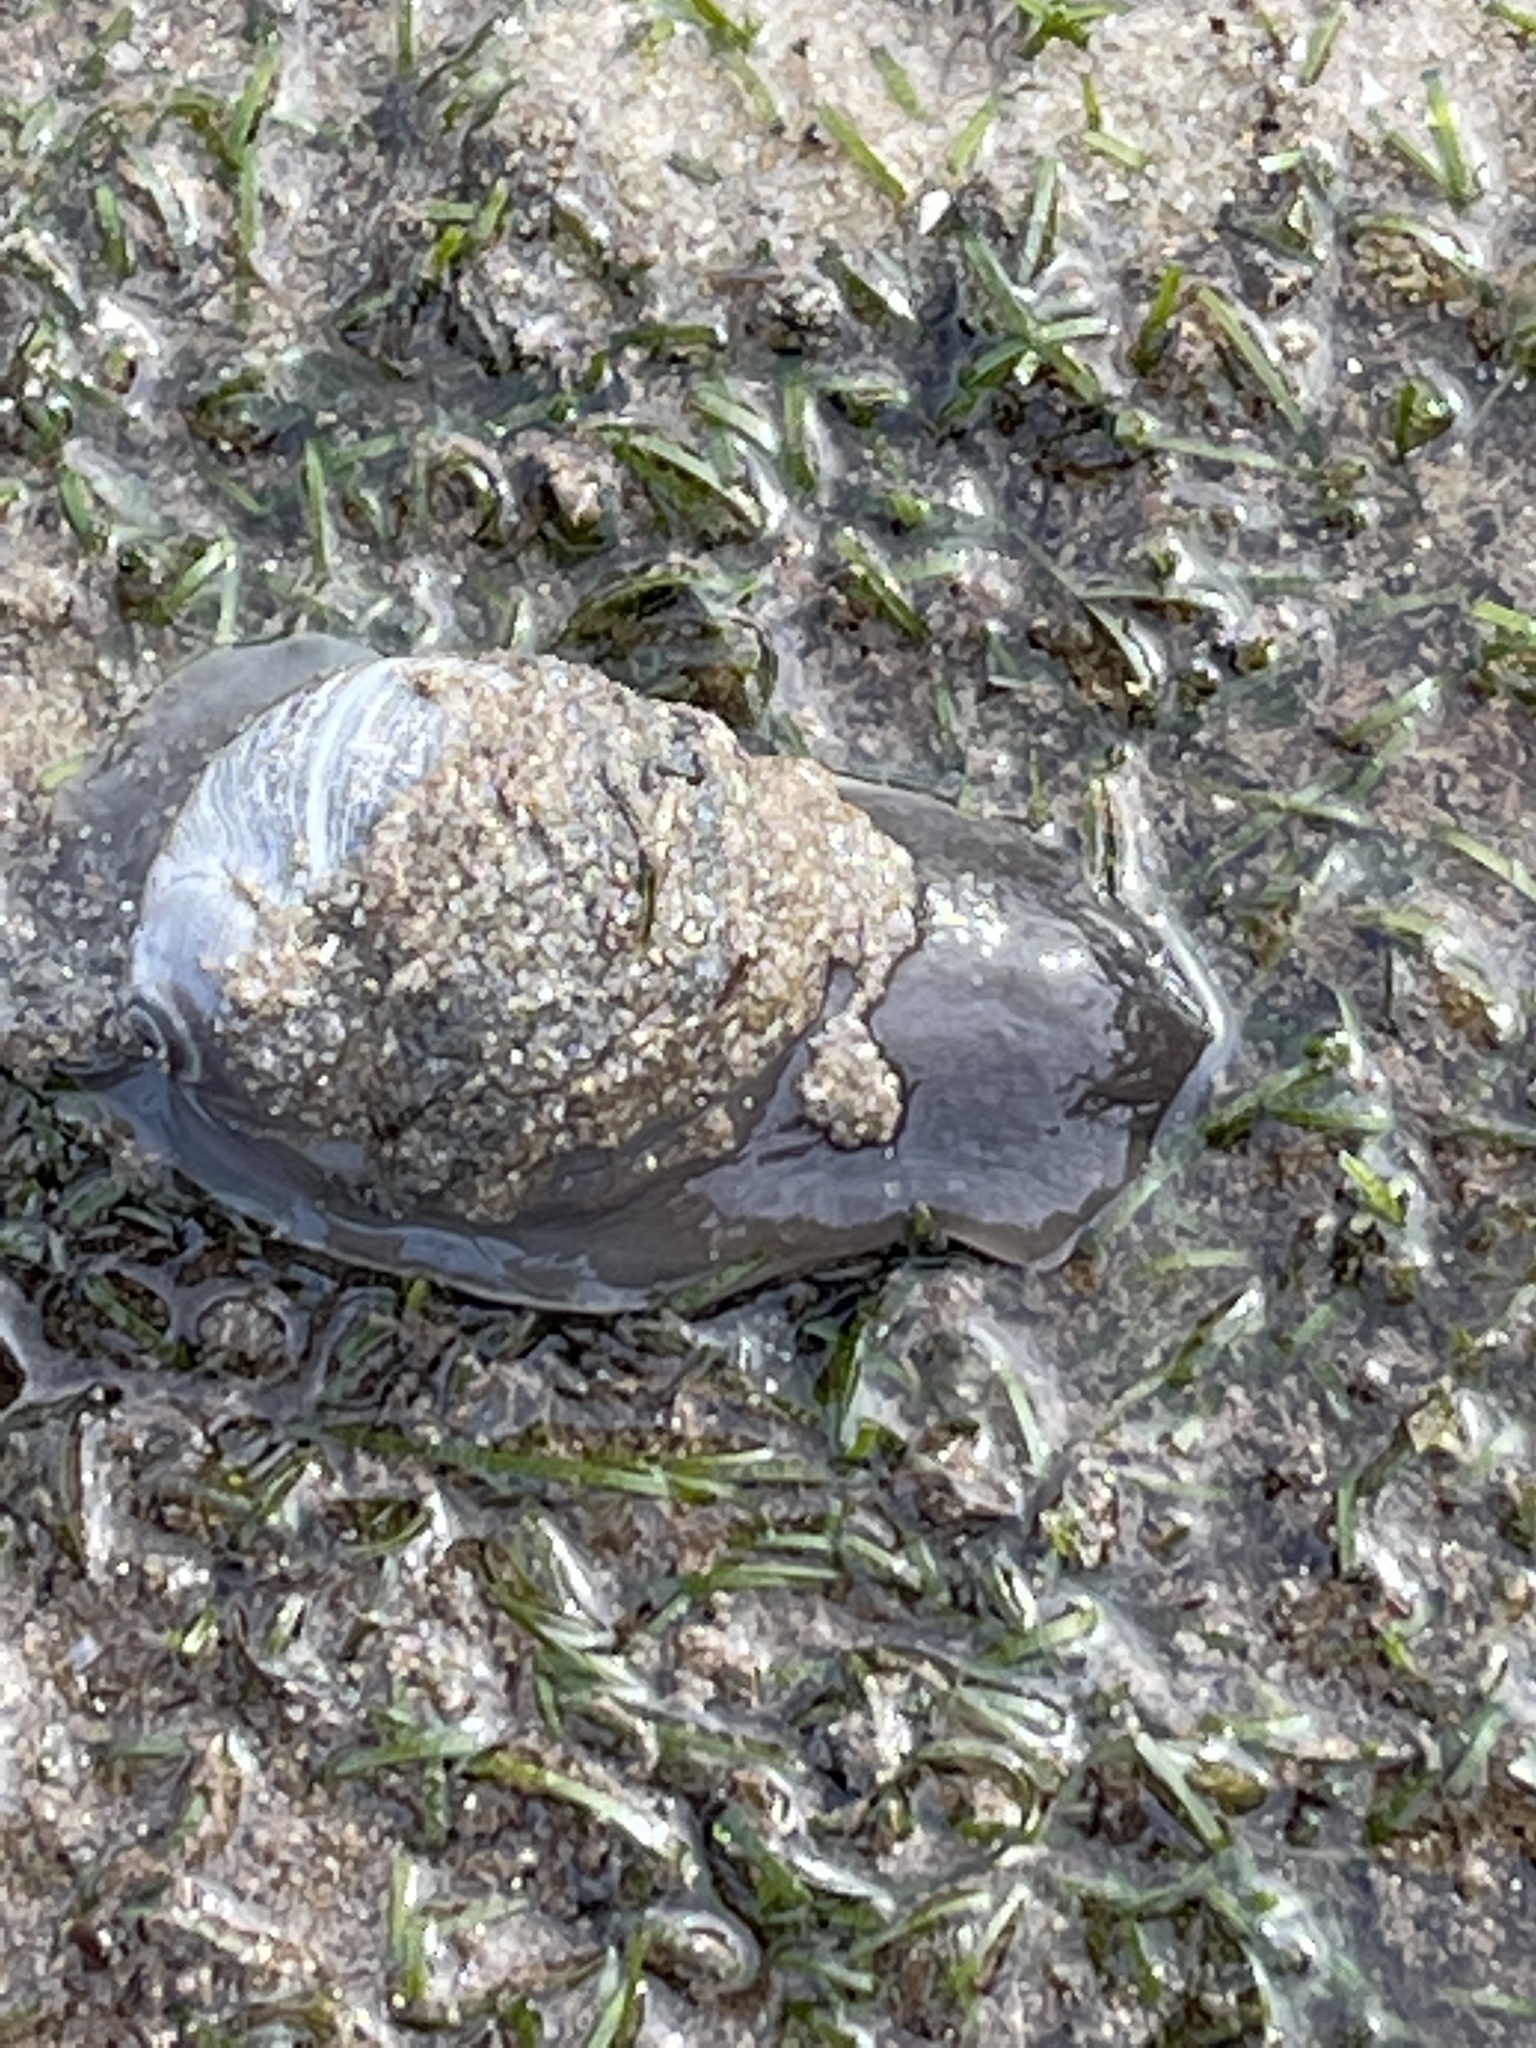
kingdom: Animalia
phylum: Mollusca
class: Gastropoda
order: Littorinimorpha
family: Naticidae
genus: Conuber
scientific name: Conuber sordidum
